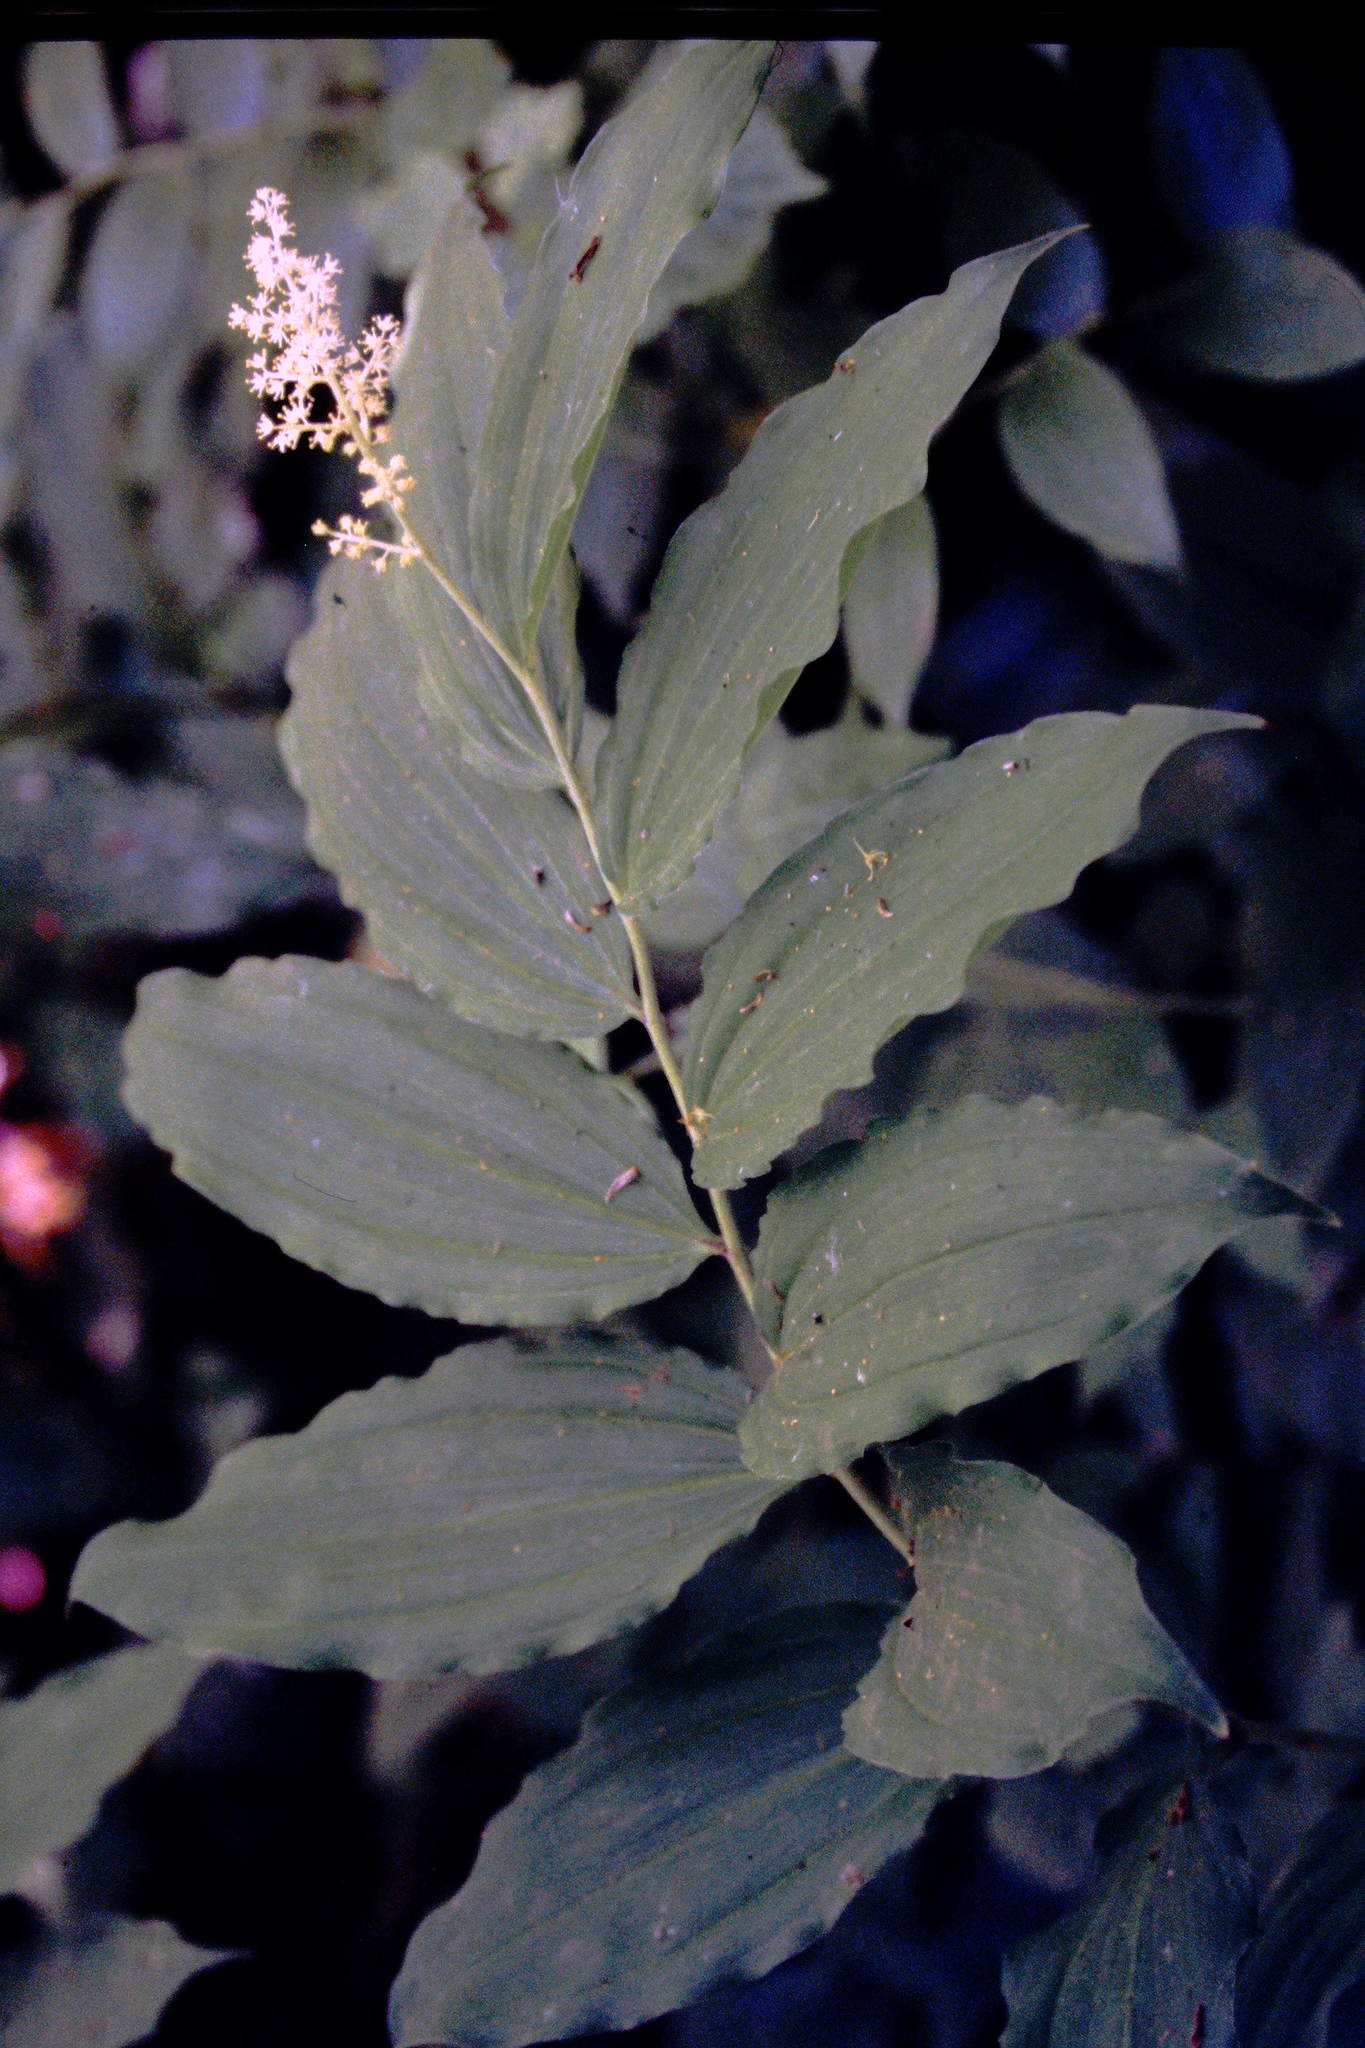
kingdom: Plantae
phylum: Tracheophyta
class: Liliopsida
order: Asparagales
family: Asparagaceae
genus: Maianthemum
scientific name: Maianthemum racemosum
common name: False spikenard
